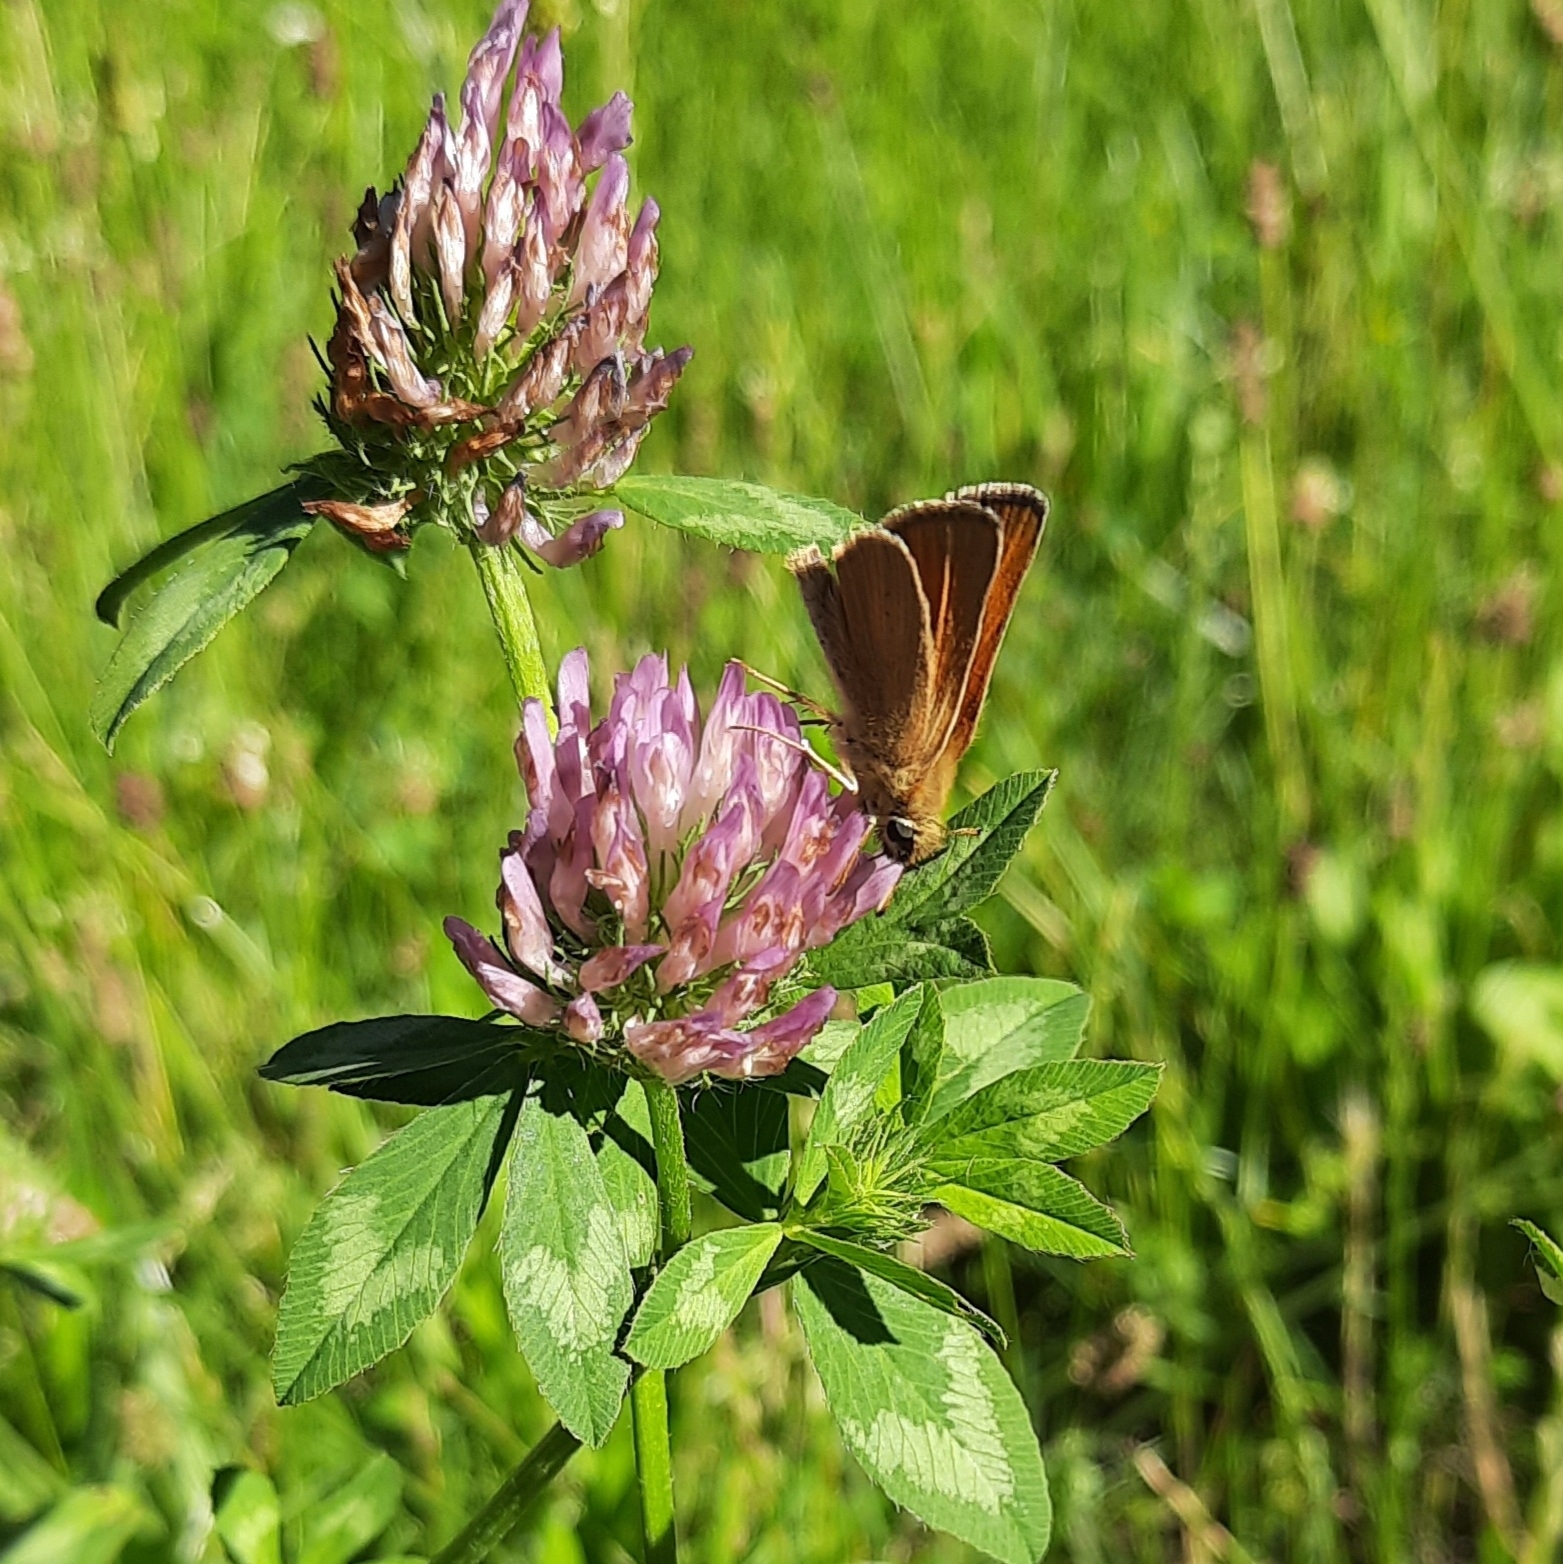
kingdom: Animalia
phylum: Arthropoda
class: Insecta
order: Lepidoptera
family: Hesperiidae
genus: Thymelicus
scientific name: Thymelicus lineola
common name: Essex skipper
